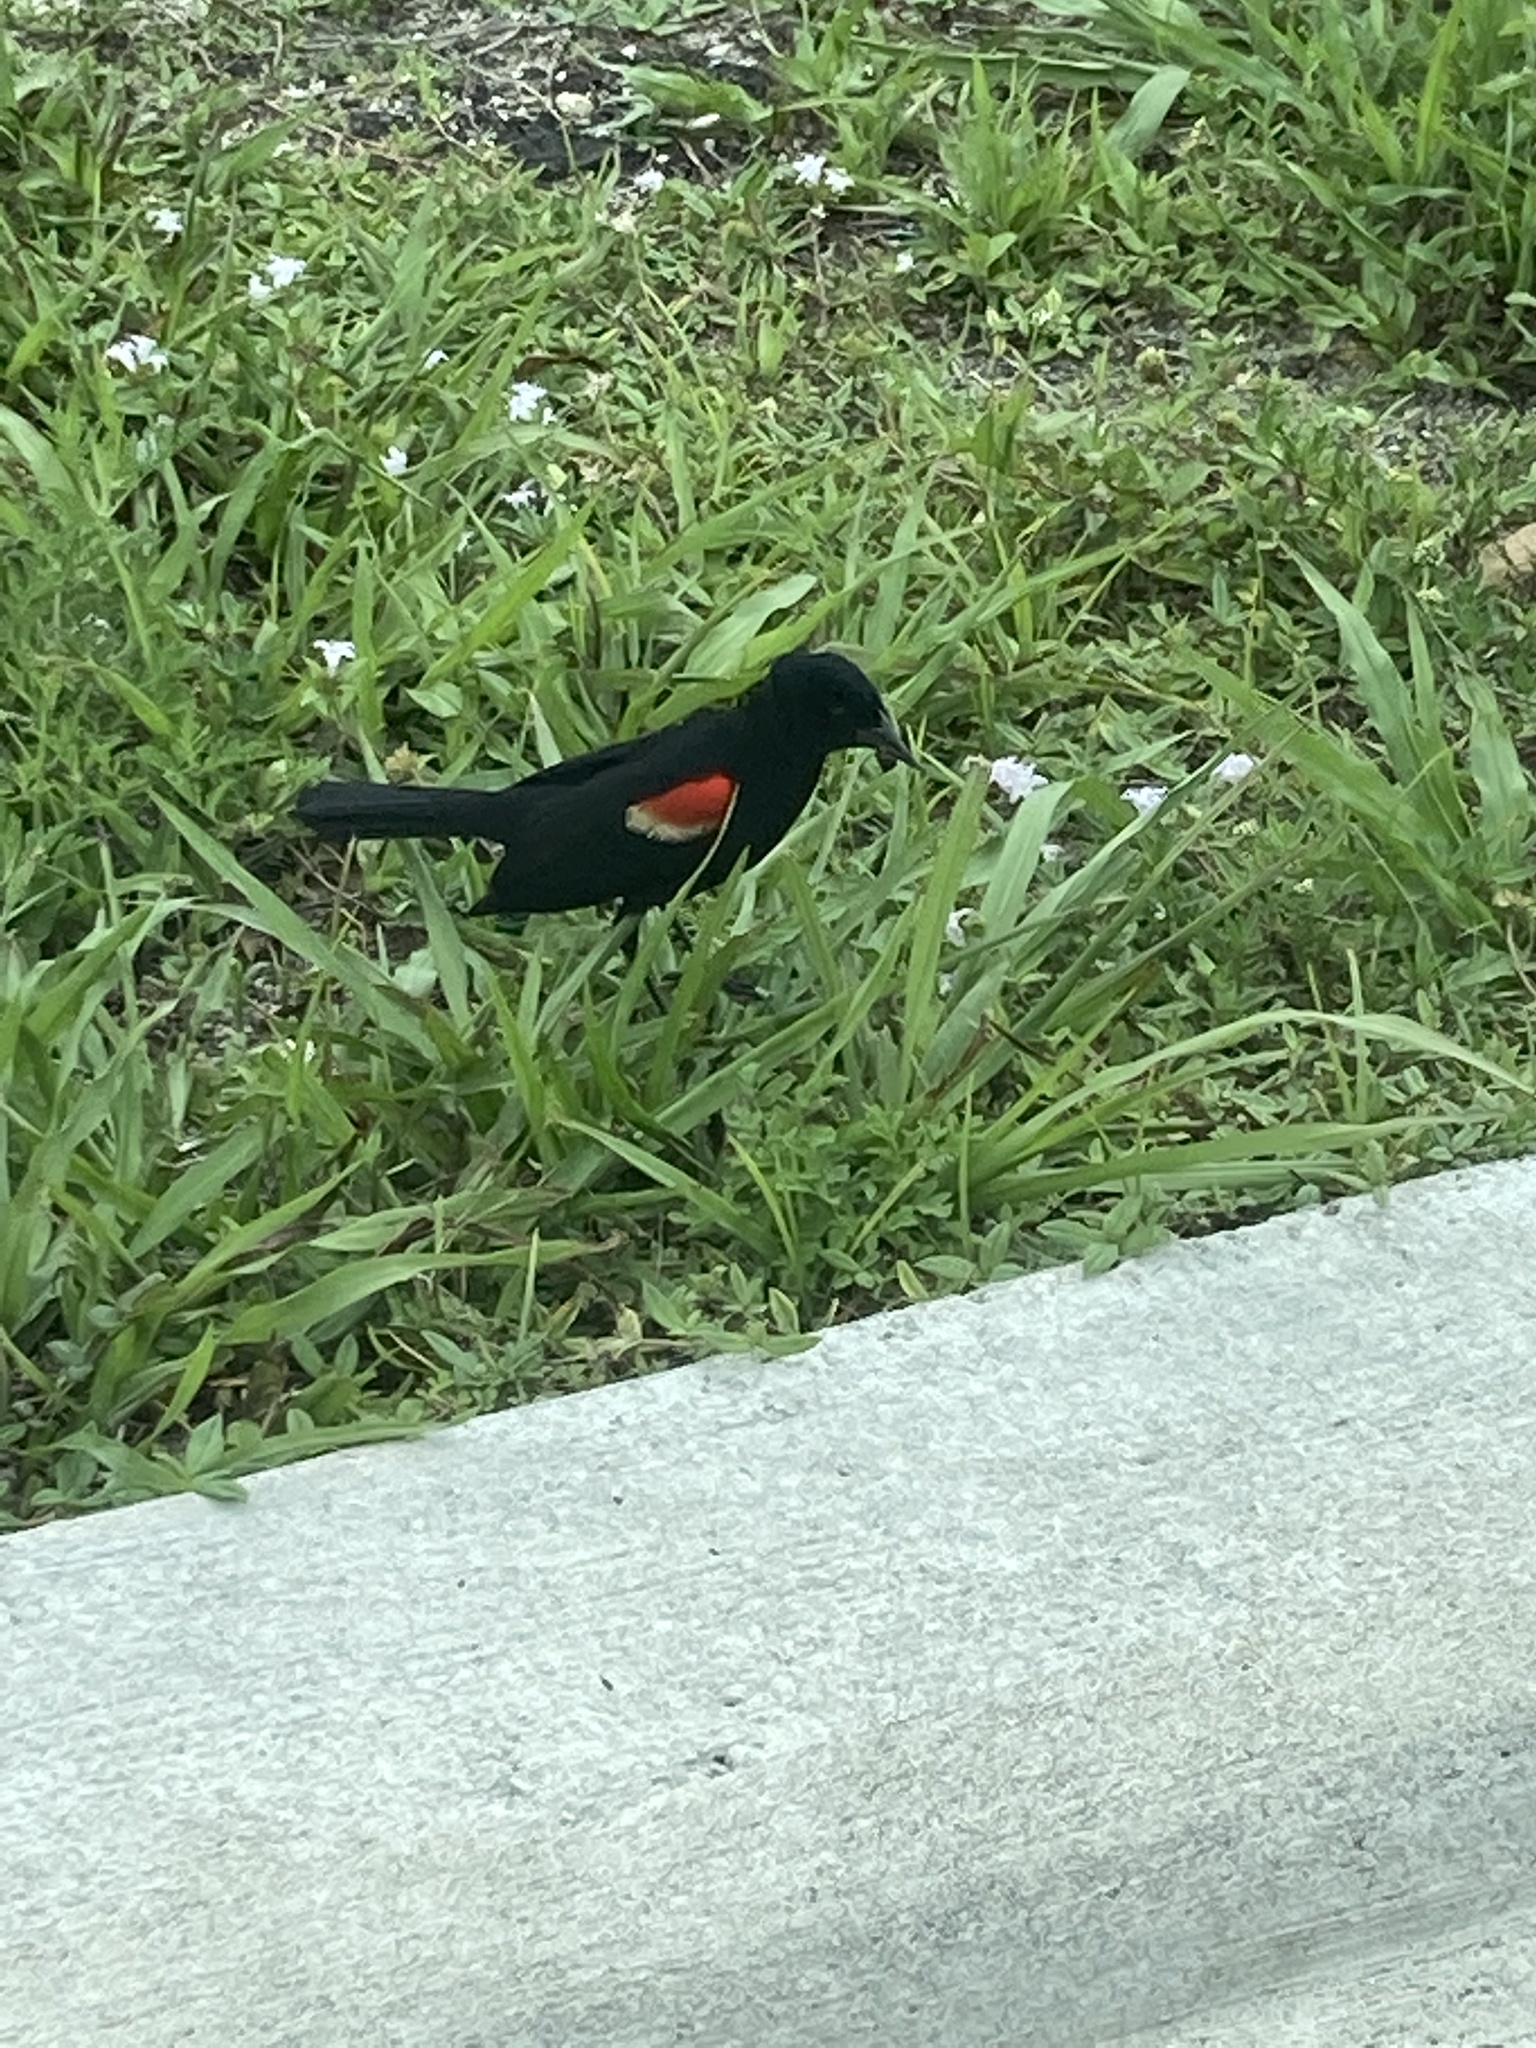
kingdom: Animalia
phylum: Chordata
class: Aves
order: Passeriformes
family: Icteridae
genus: Agelaius
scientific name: Agelaius phoeniceus
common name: Red-winged blackbird
